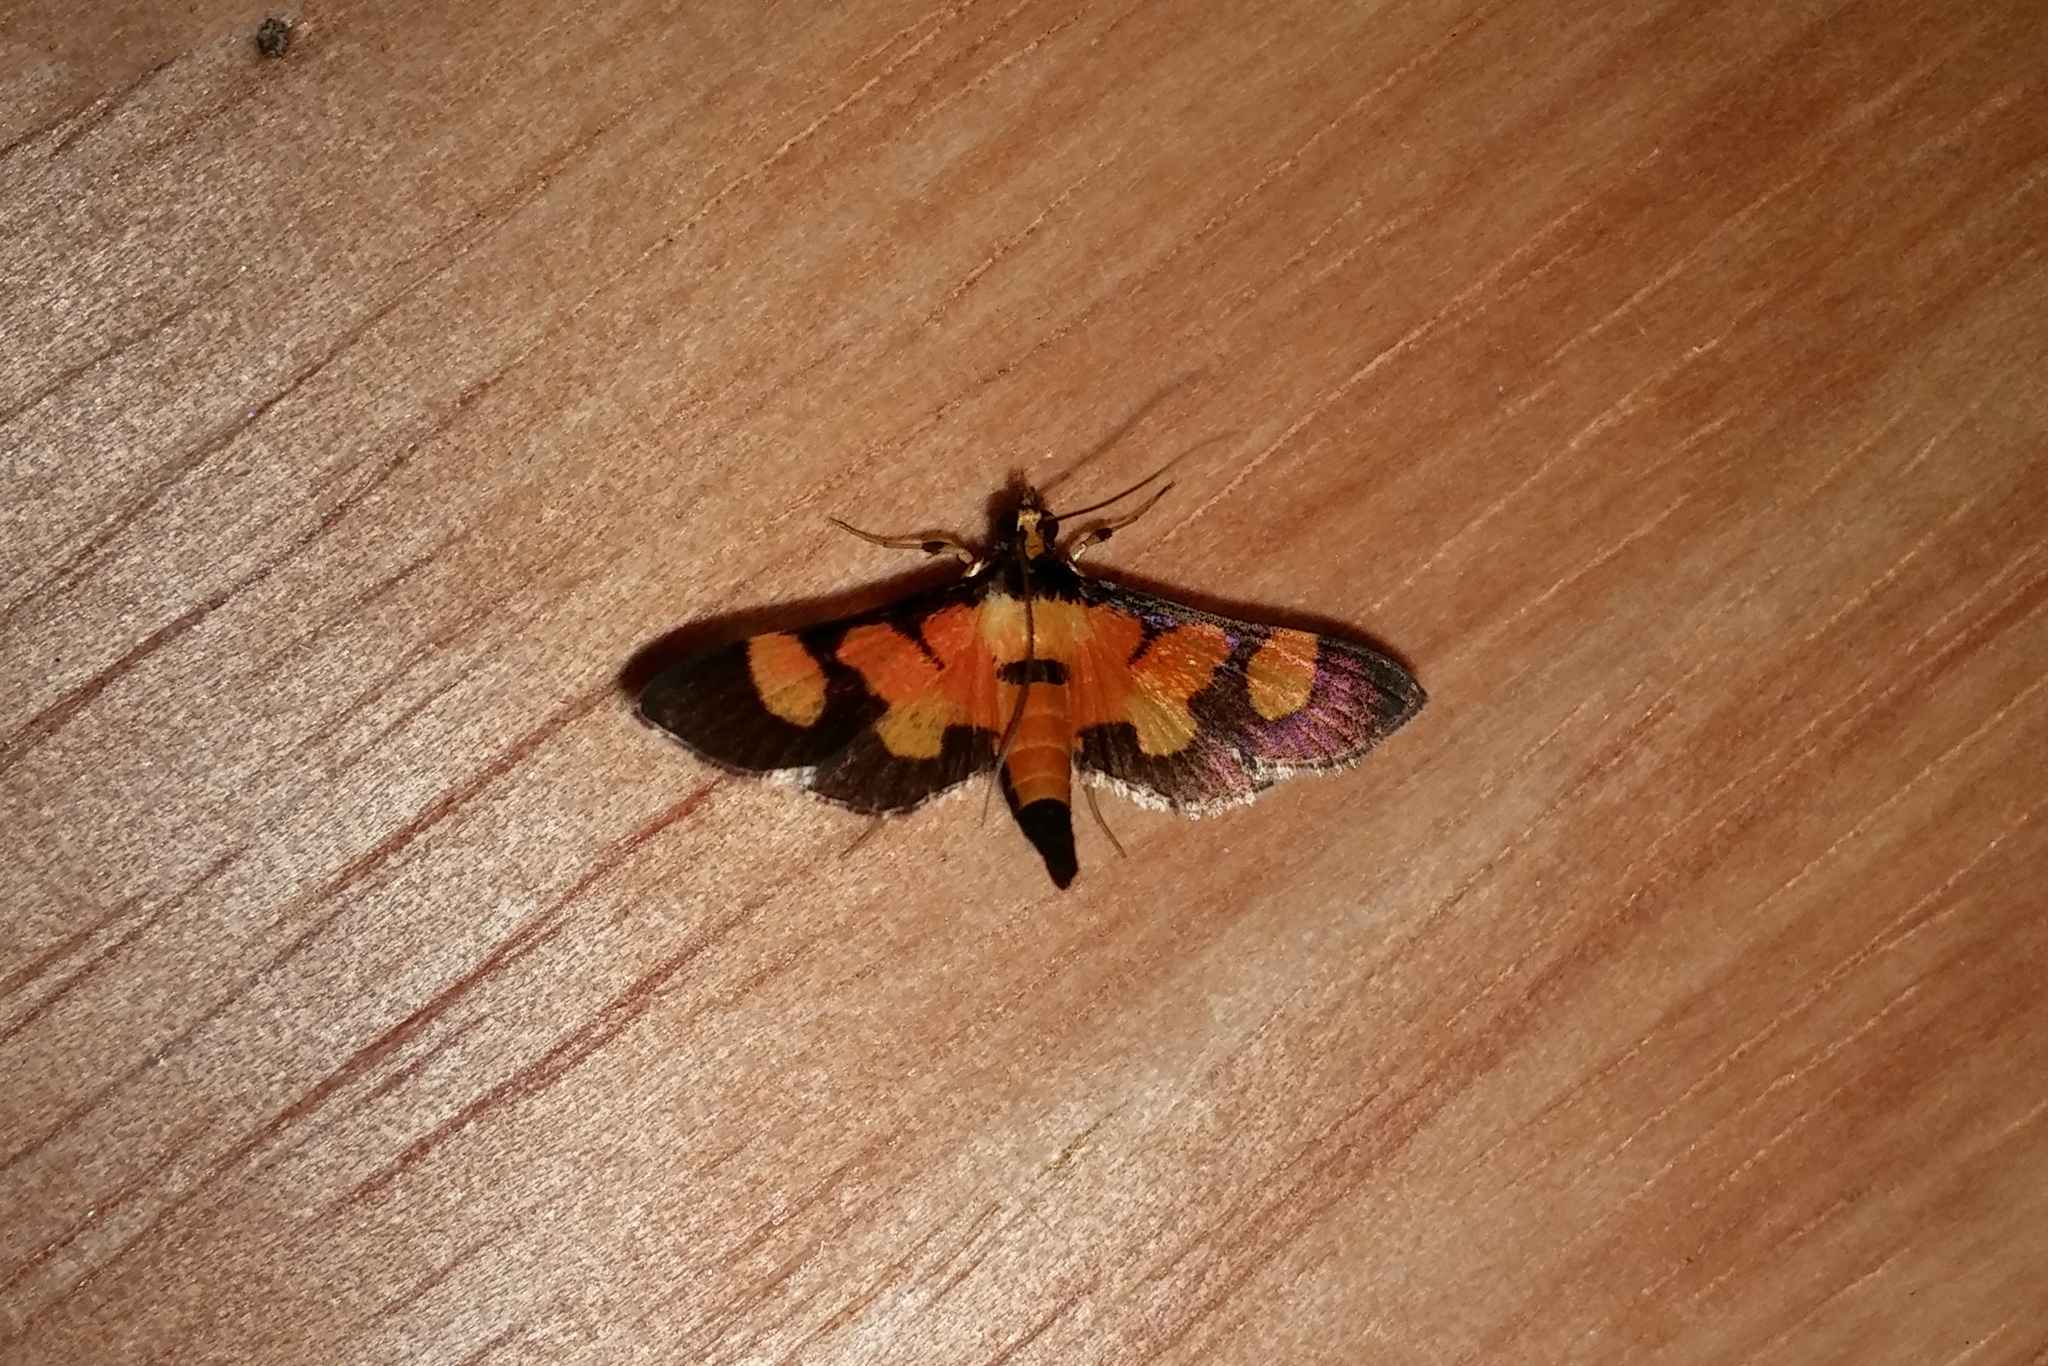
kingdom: Animalia
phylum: Arthropoda
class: Insecta
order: Lepidoptera
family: Crambidae
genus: Aethaloessa
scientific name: Aethaloessa calidalis
